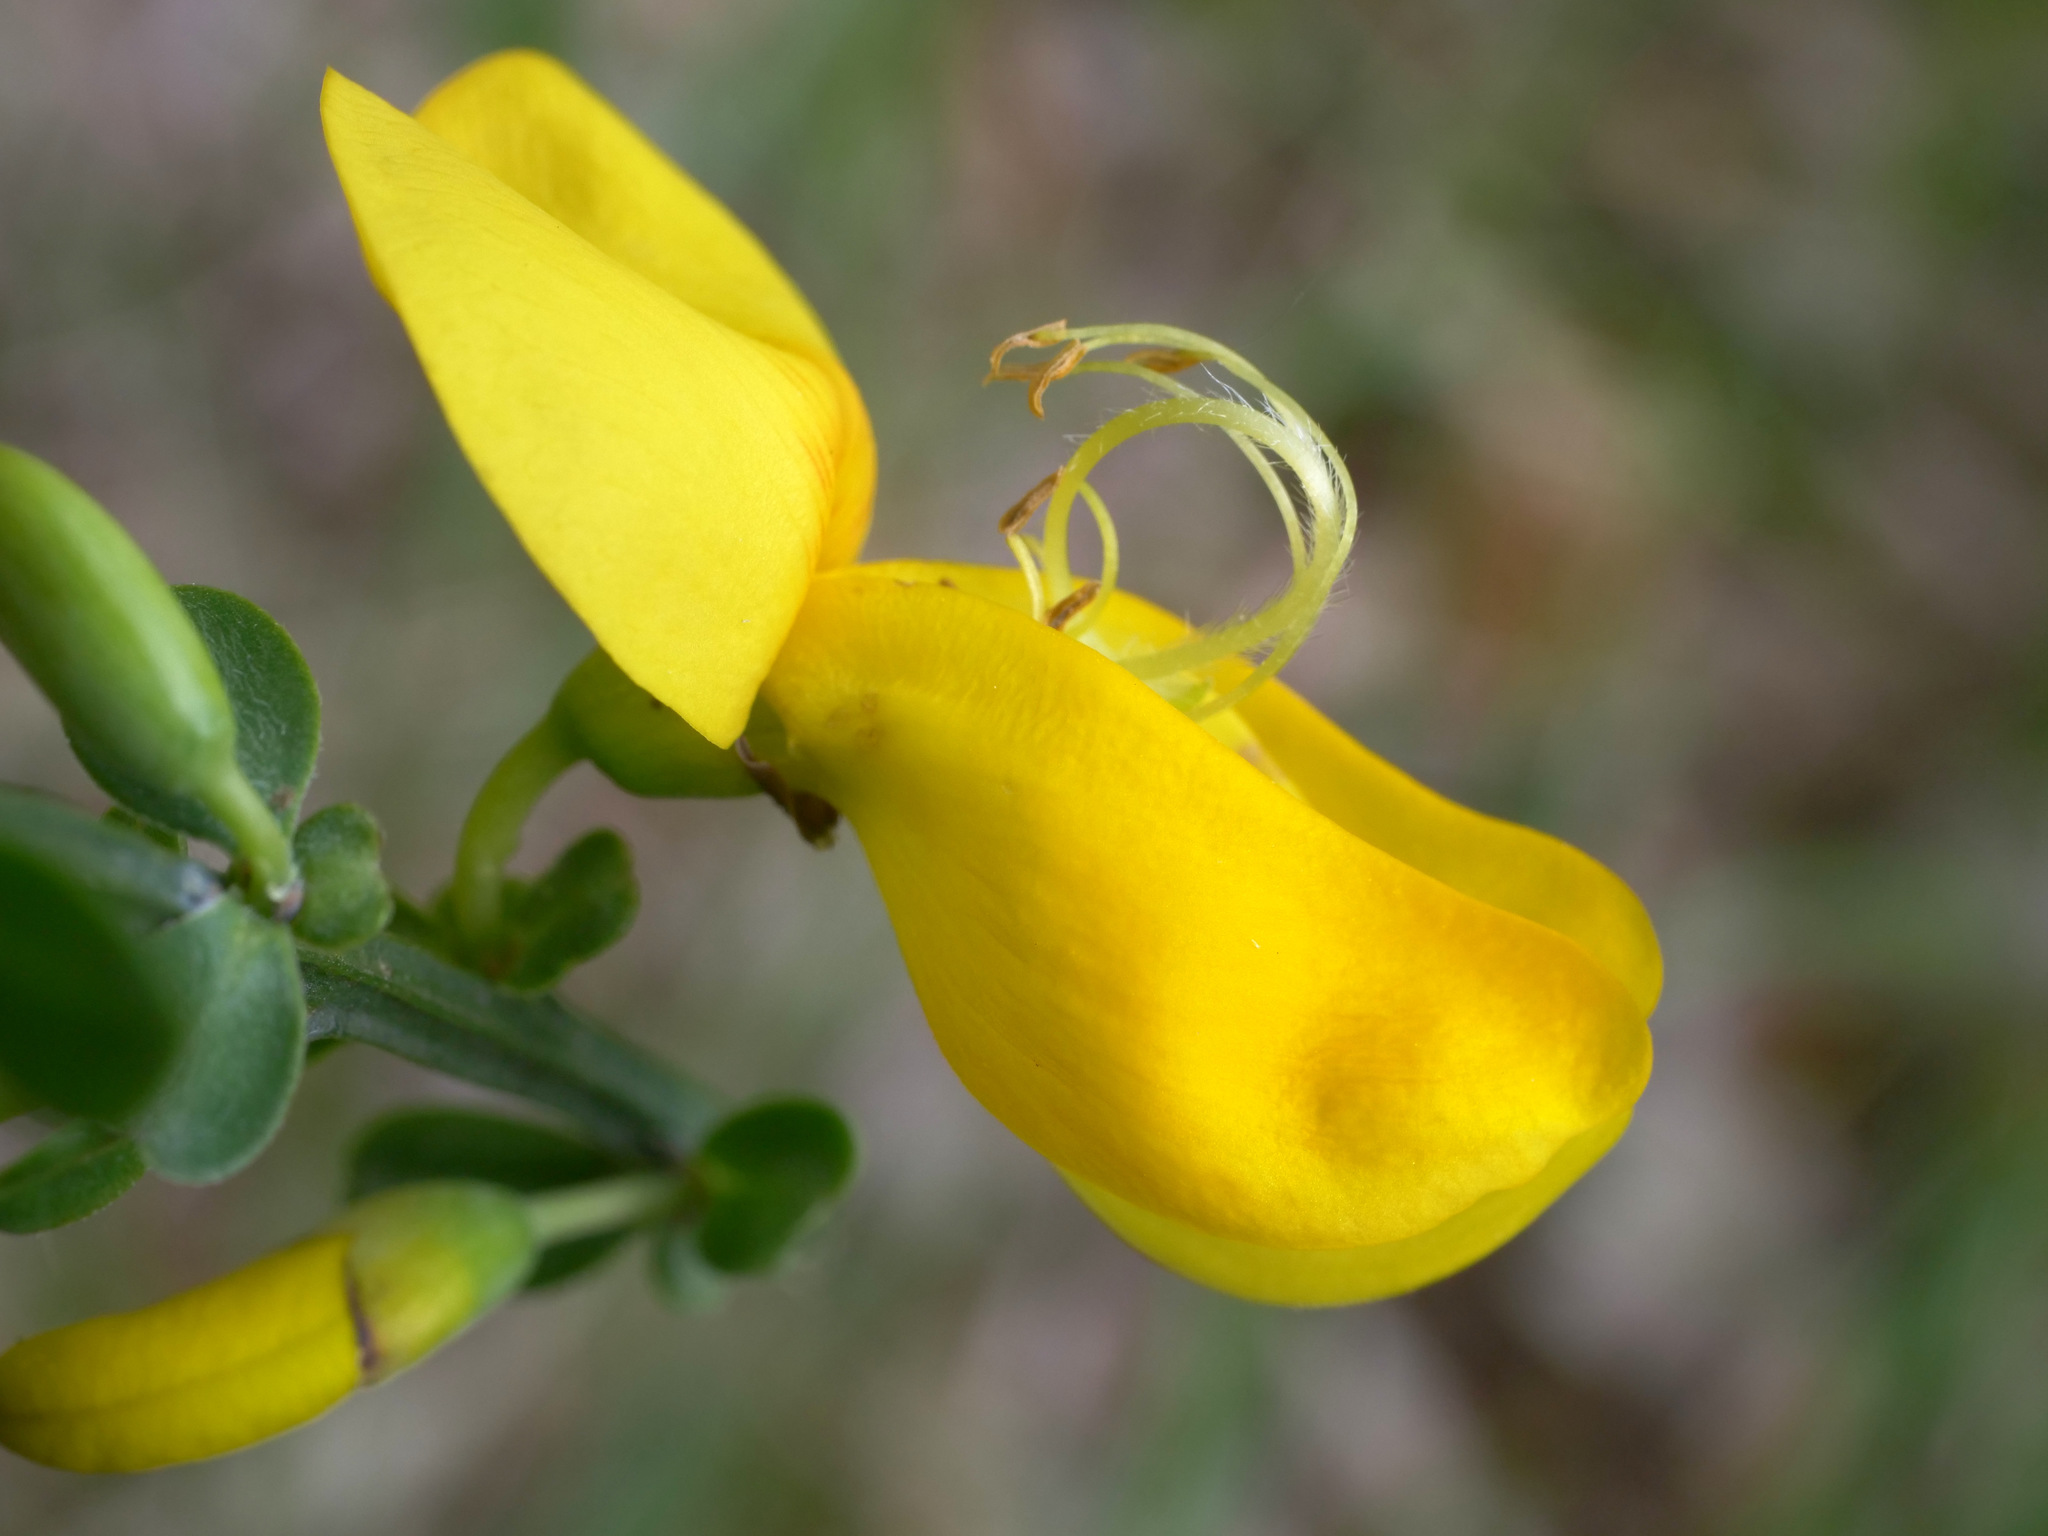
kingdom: Plantae
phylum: Tracheophyta
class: Magnoliopsida
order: Fabales
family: Fabaceae
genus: Cytisus
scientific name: Cytisus scoparius
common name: Scotch broom
